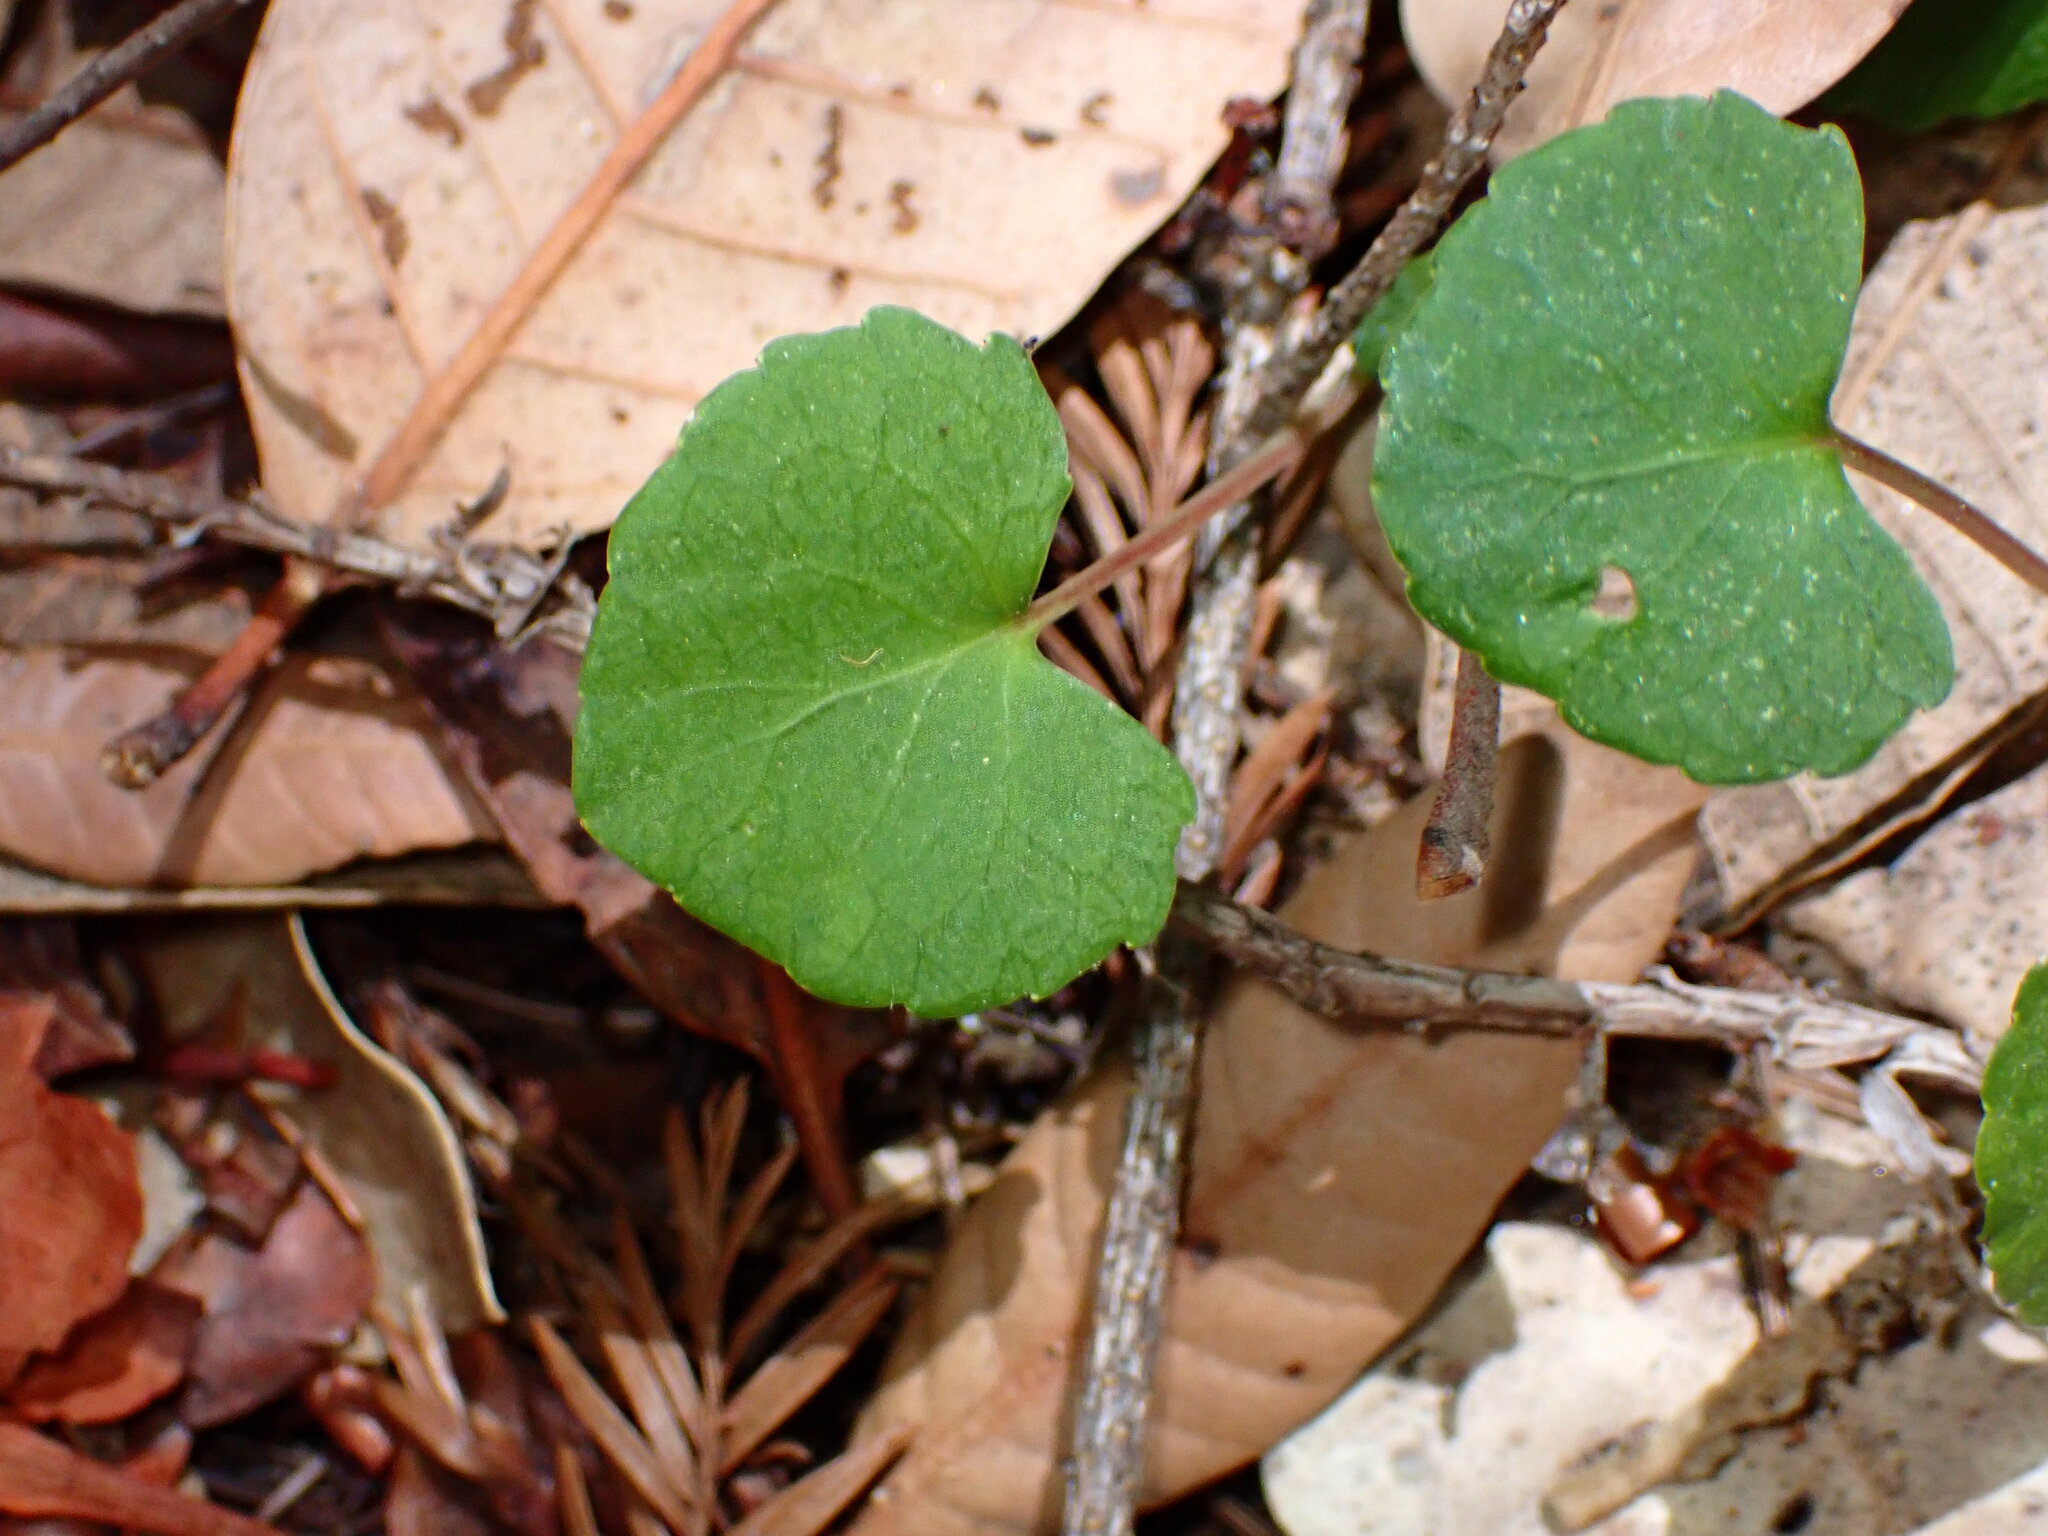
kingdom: Plantae
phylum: Tracheophyta
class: Magnoliopsida
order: Malpighiales
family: Violaceae
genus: Viola
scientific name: Viola sempervirens
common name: Evergreen violet
